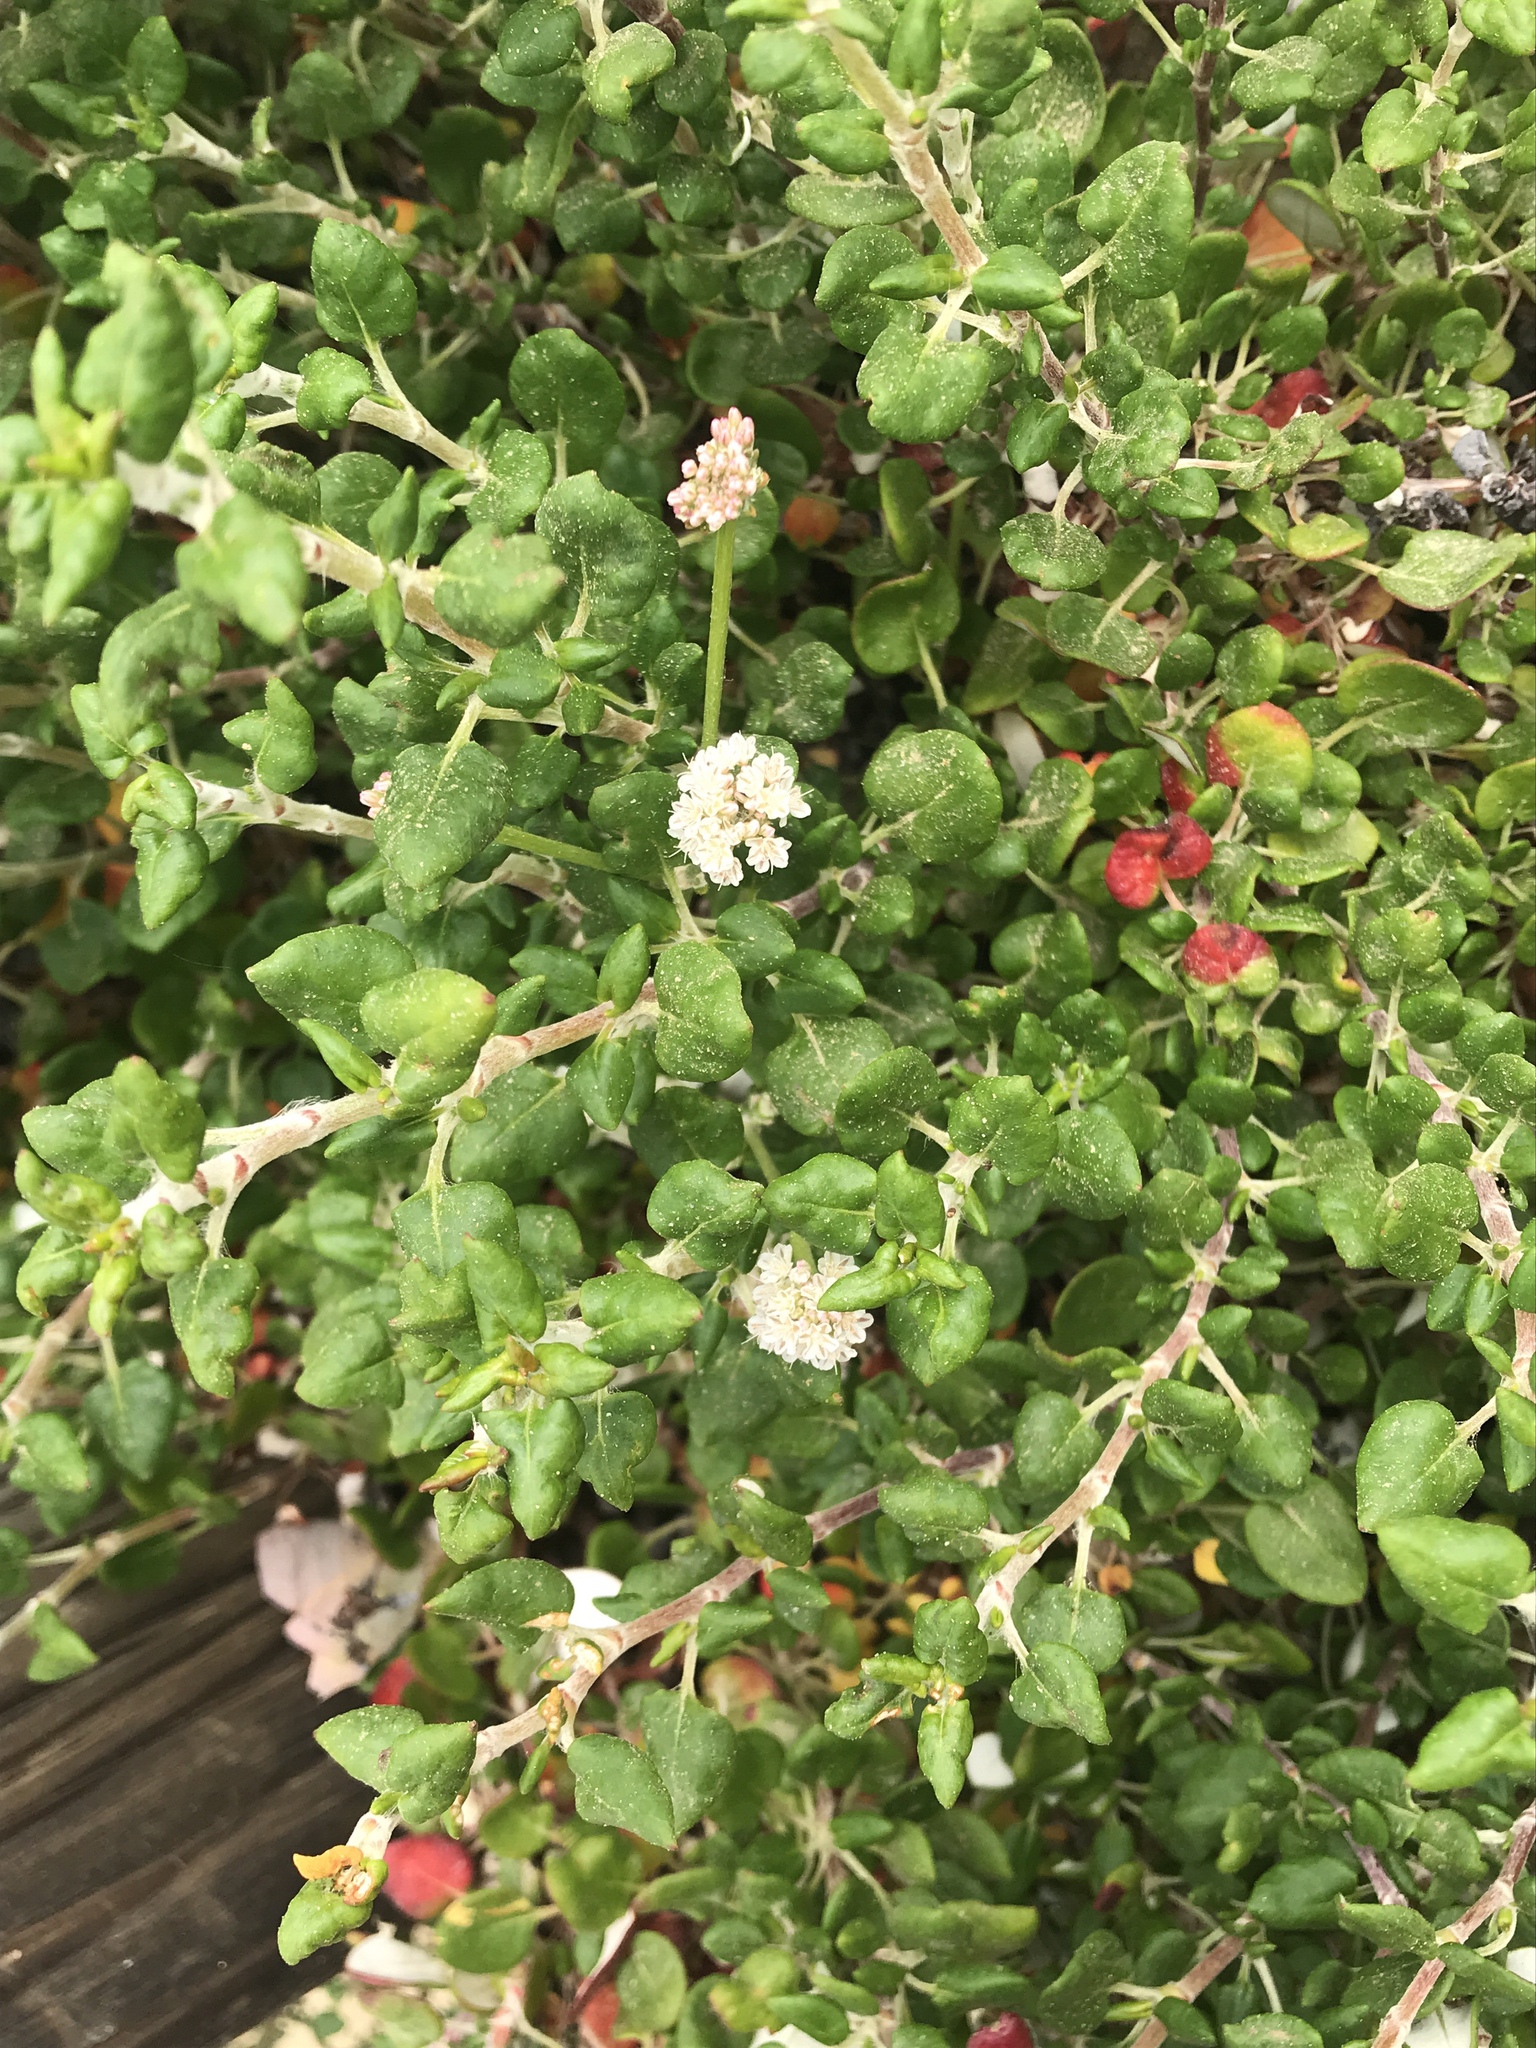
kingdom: Plantae
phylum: Tracheophyta
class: Magnoliopsida
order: Caryophyllales
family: Polygonaceae
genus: Eriogonum
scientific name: Eriogonum parvifolium
